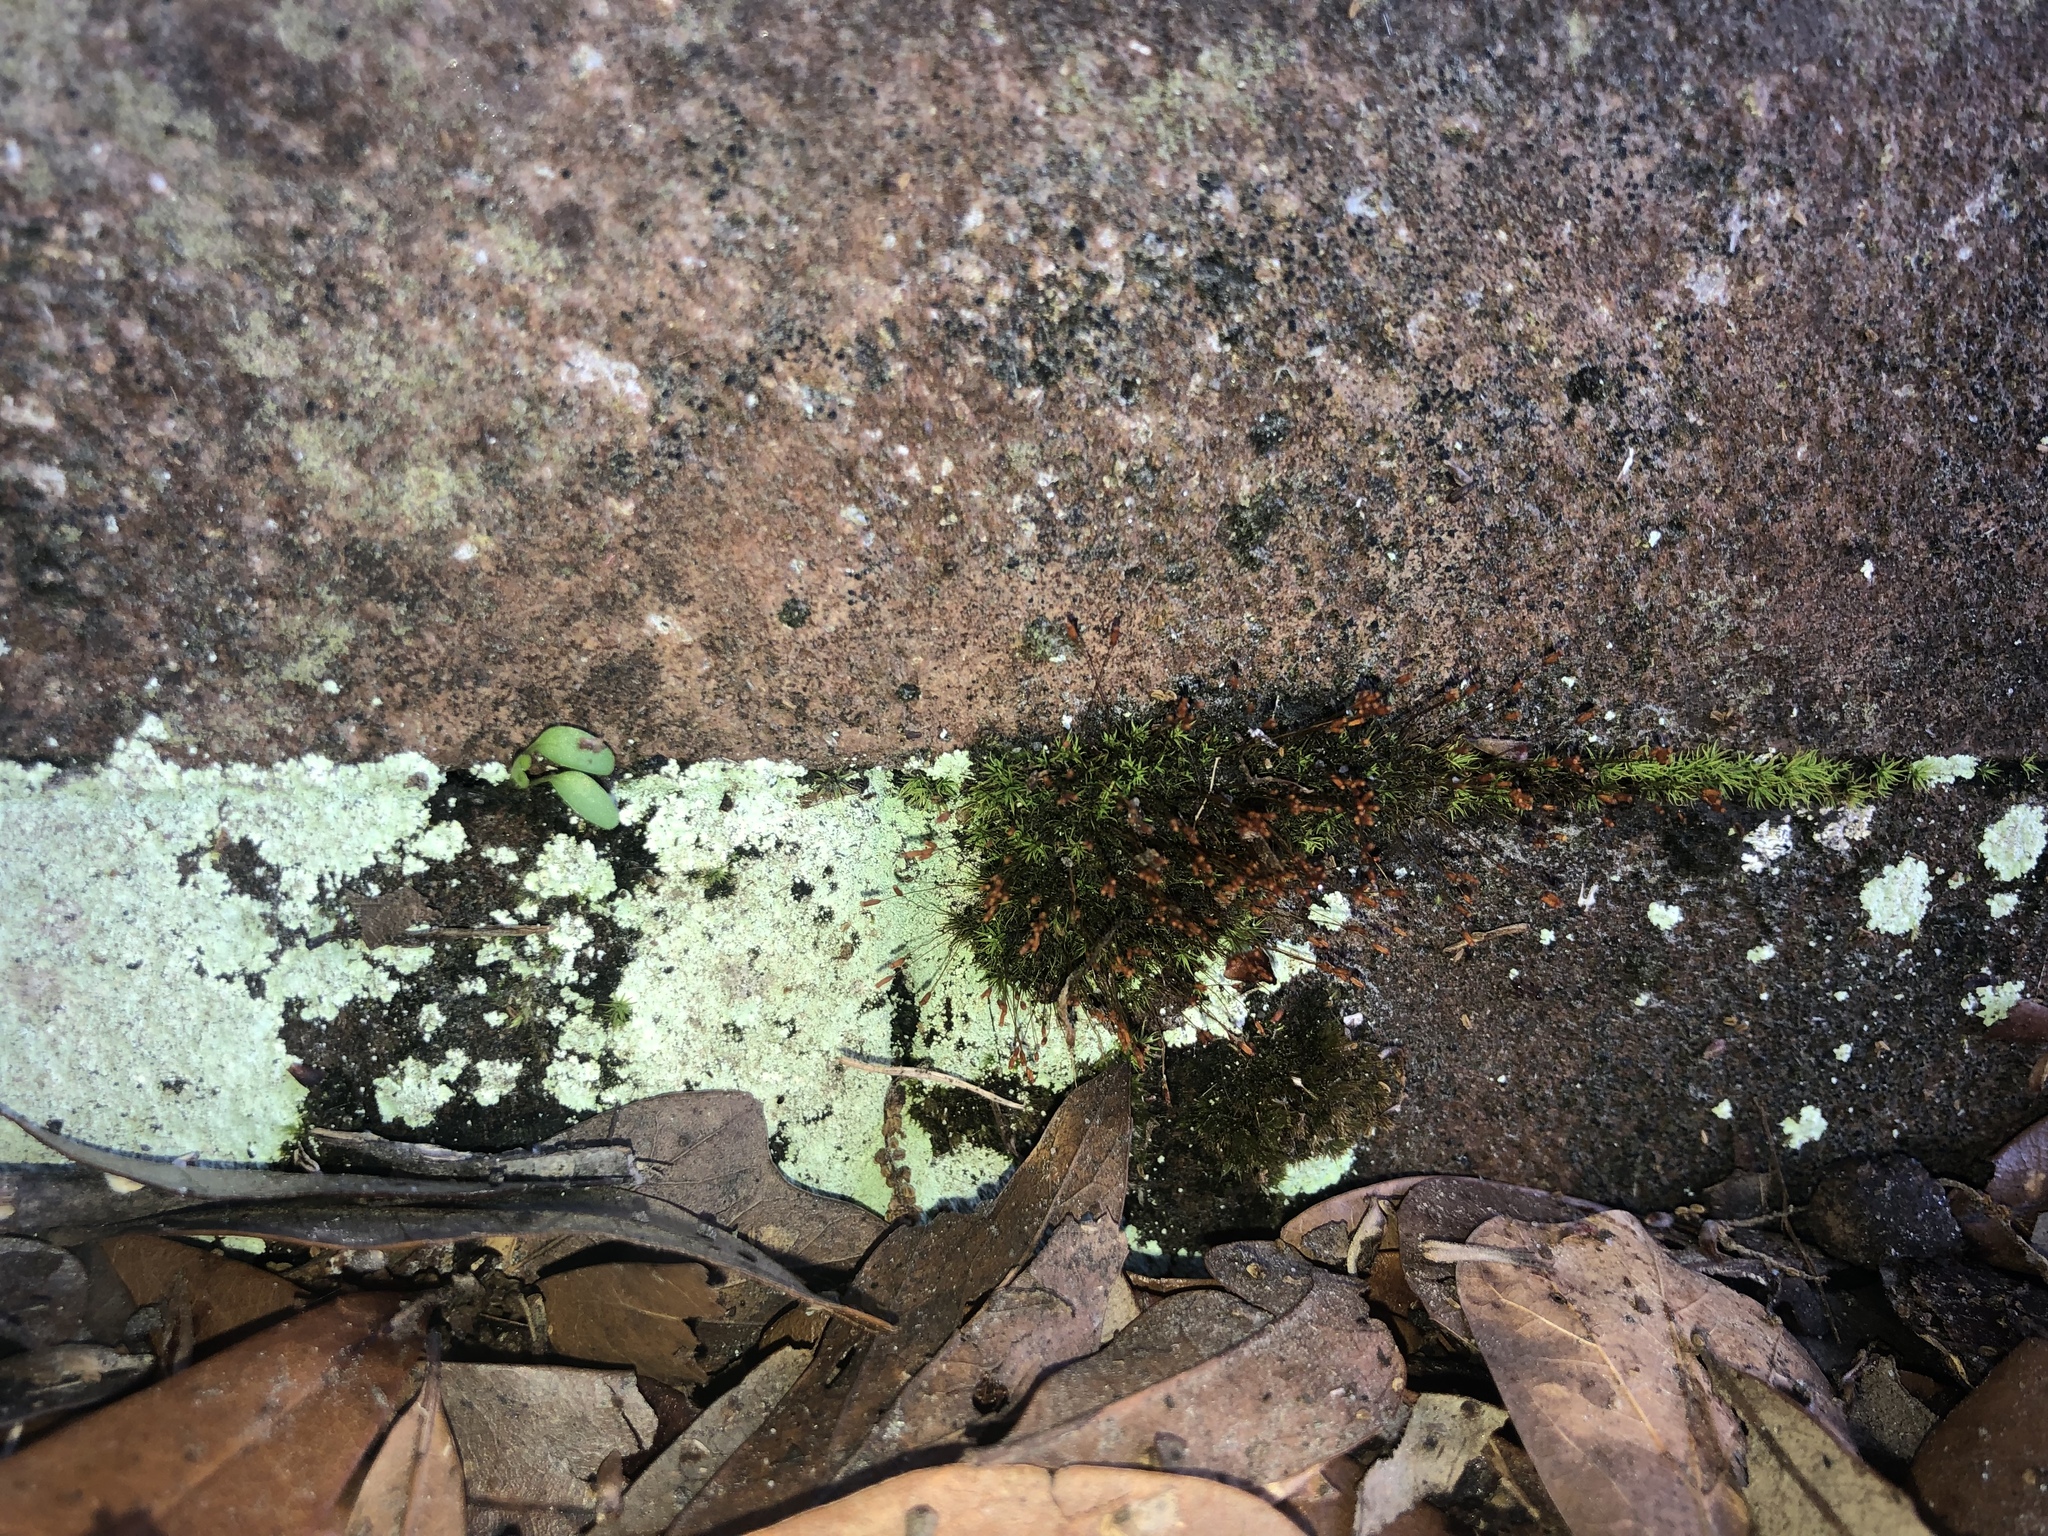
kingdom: Plantae
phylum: Bryophyta
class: Bryopsida
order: Dicranales
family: Dicranaceae
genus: Dicranum
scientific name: Dicranum scoparium
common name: Broom fork-moss
